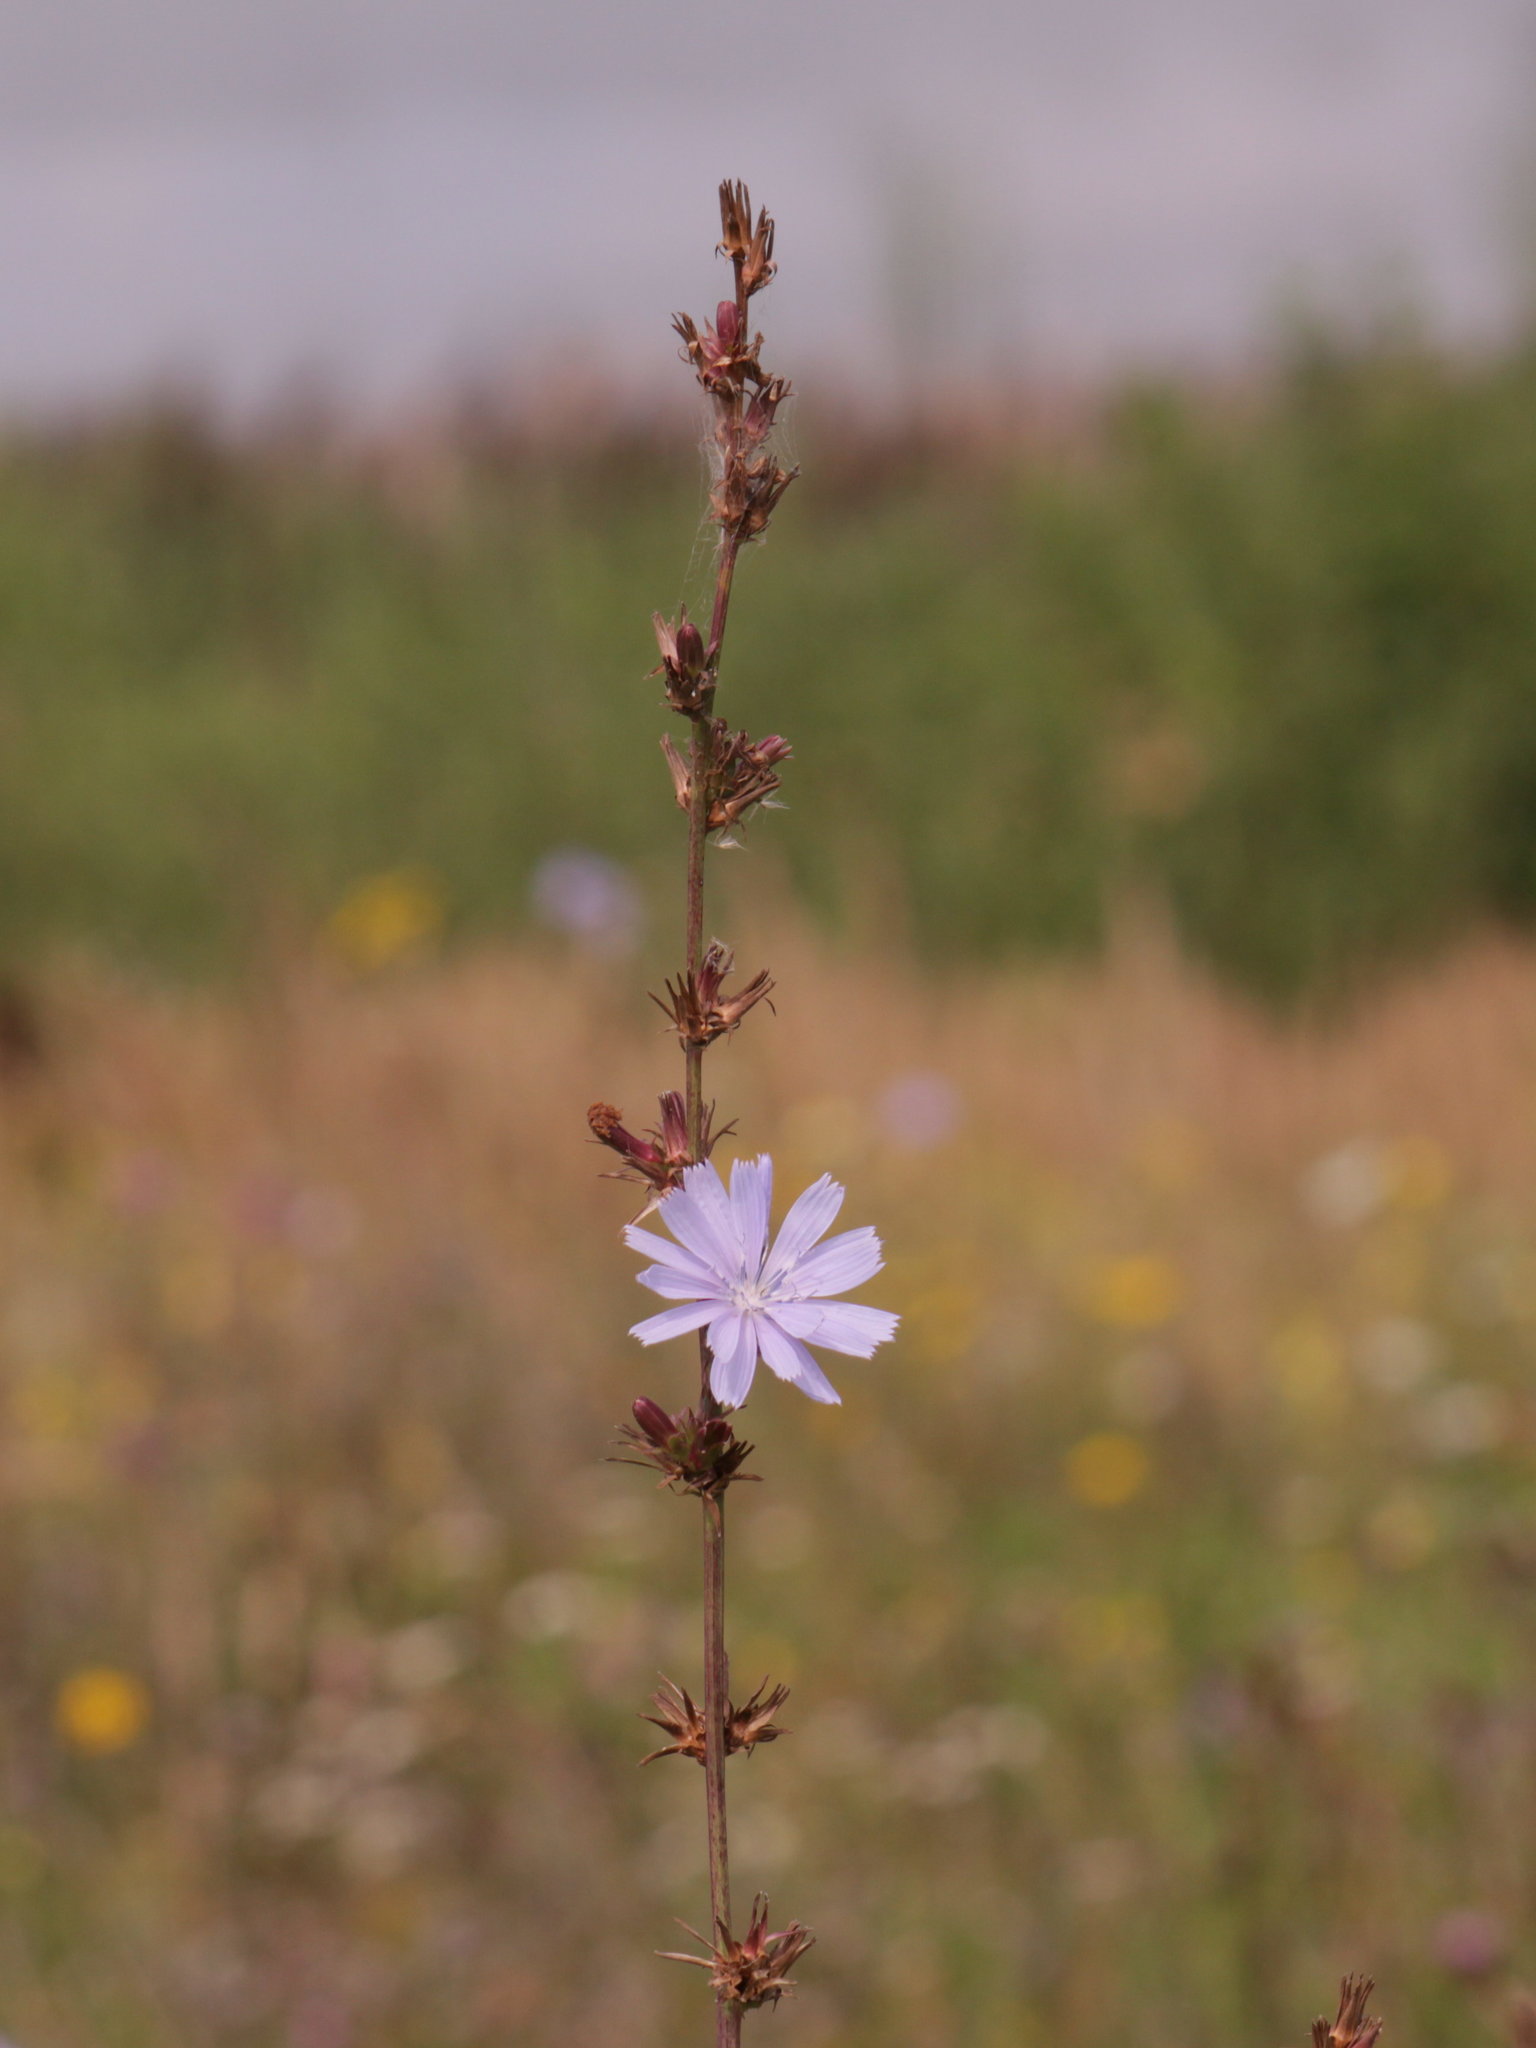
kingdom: Plantae
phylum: Tracheophyta
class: Magnoliopsida
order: Asterales
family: Asteraceae
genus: Cichorium
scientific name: Cichorium intybus
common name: Chicory
